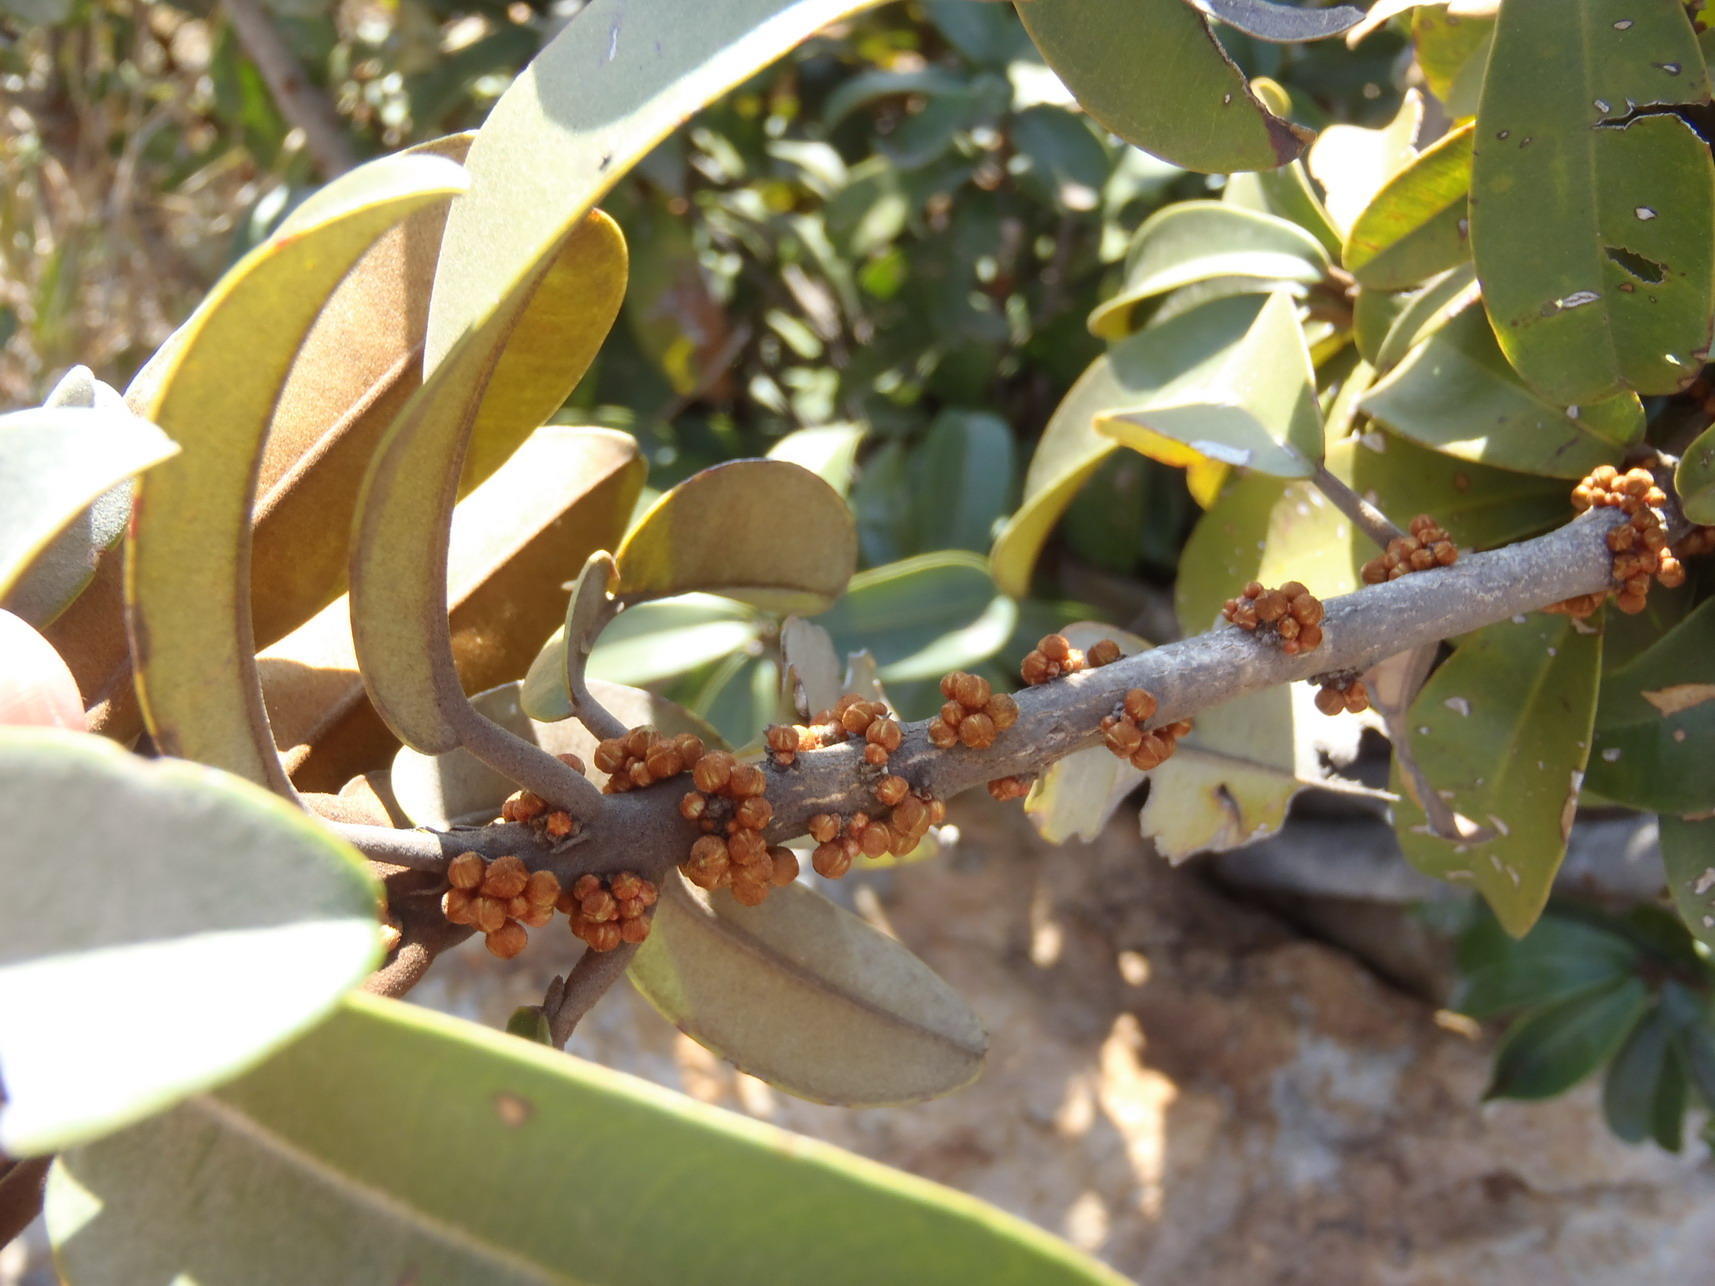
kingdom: Plantae
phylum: Tracheophyta
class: Magnoliopsida
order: Ericales
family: Sapotaceae
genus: Englerophytum
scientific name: Englerophytum magalismontanum
